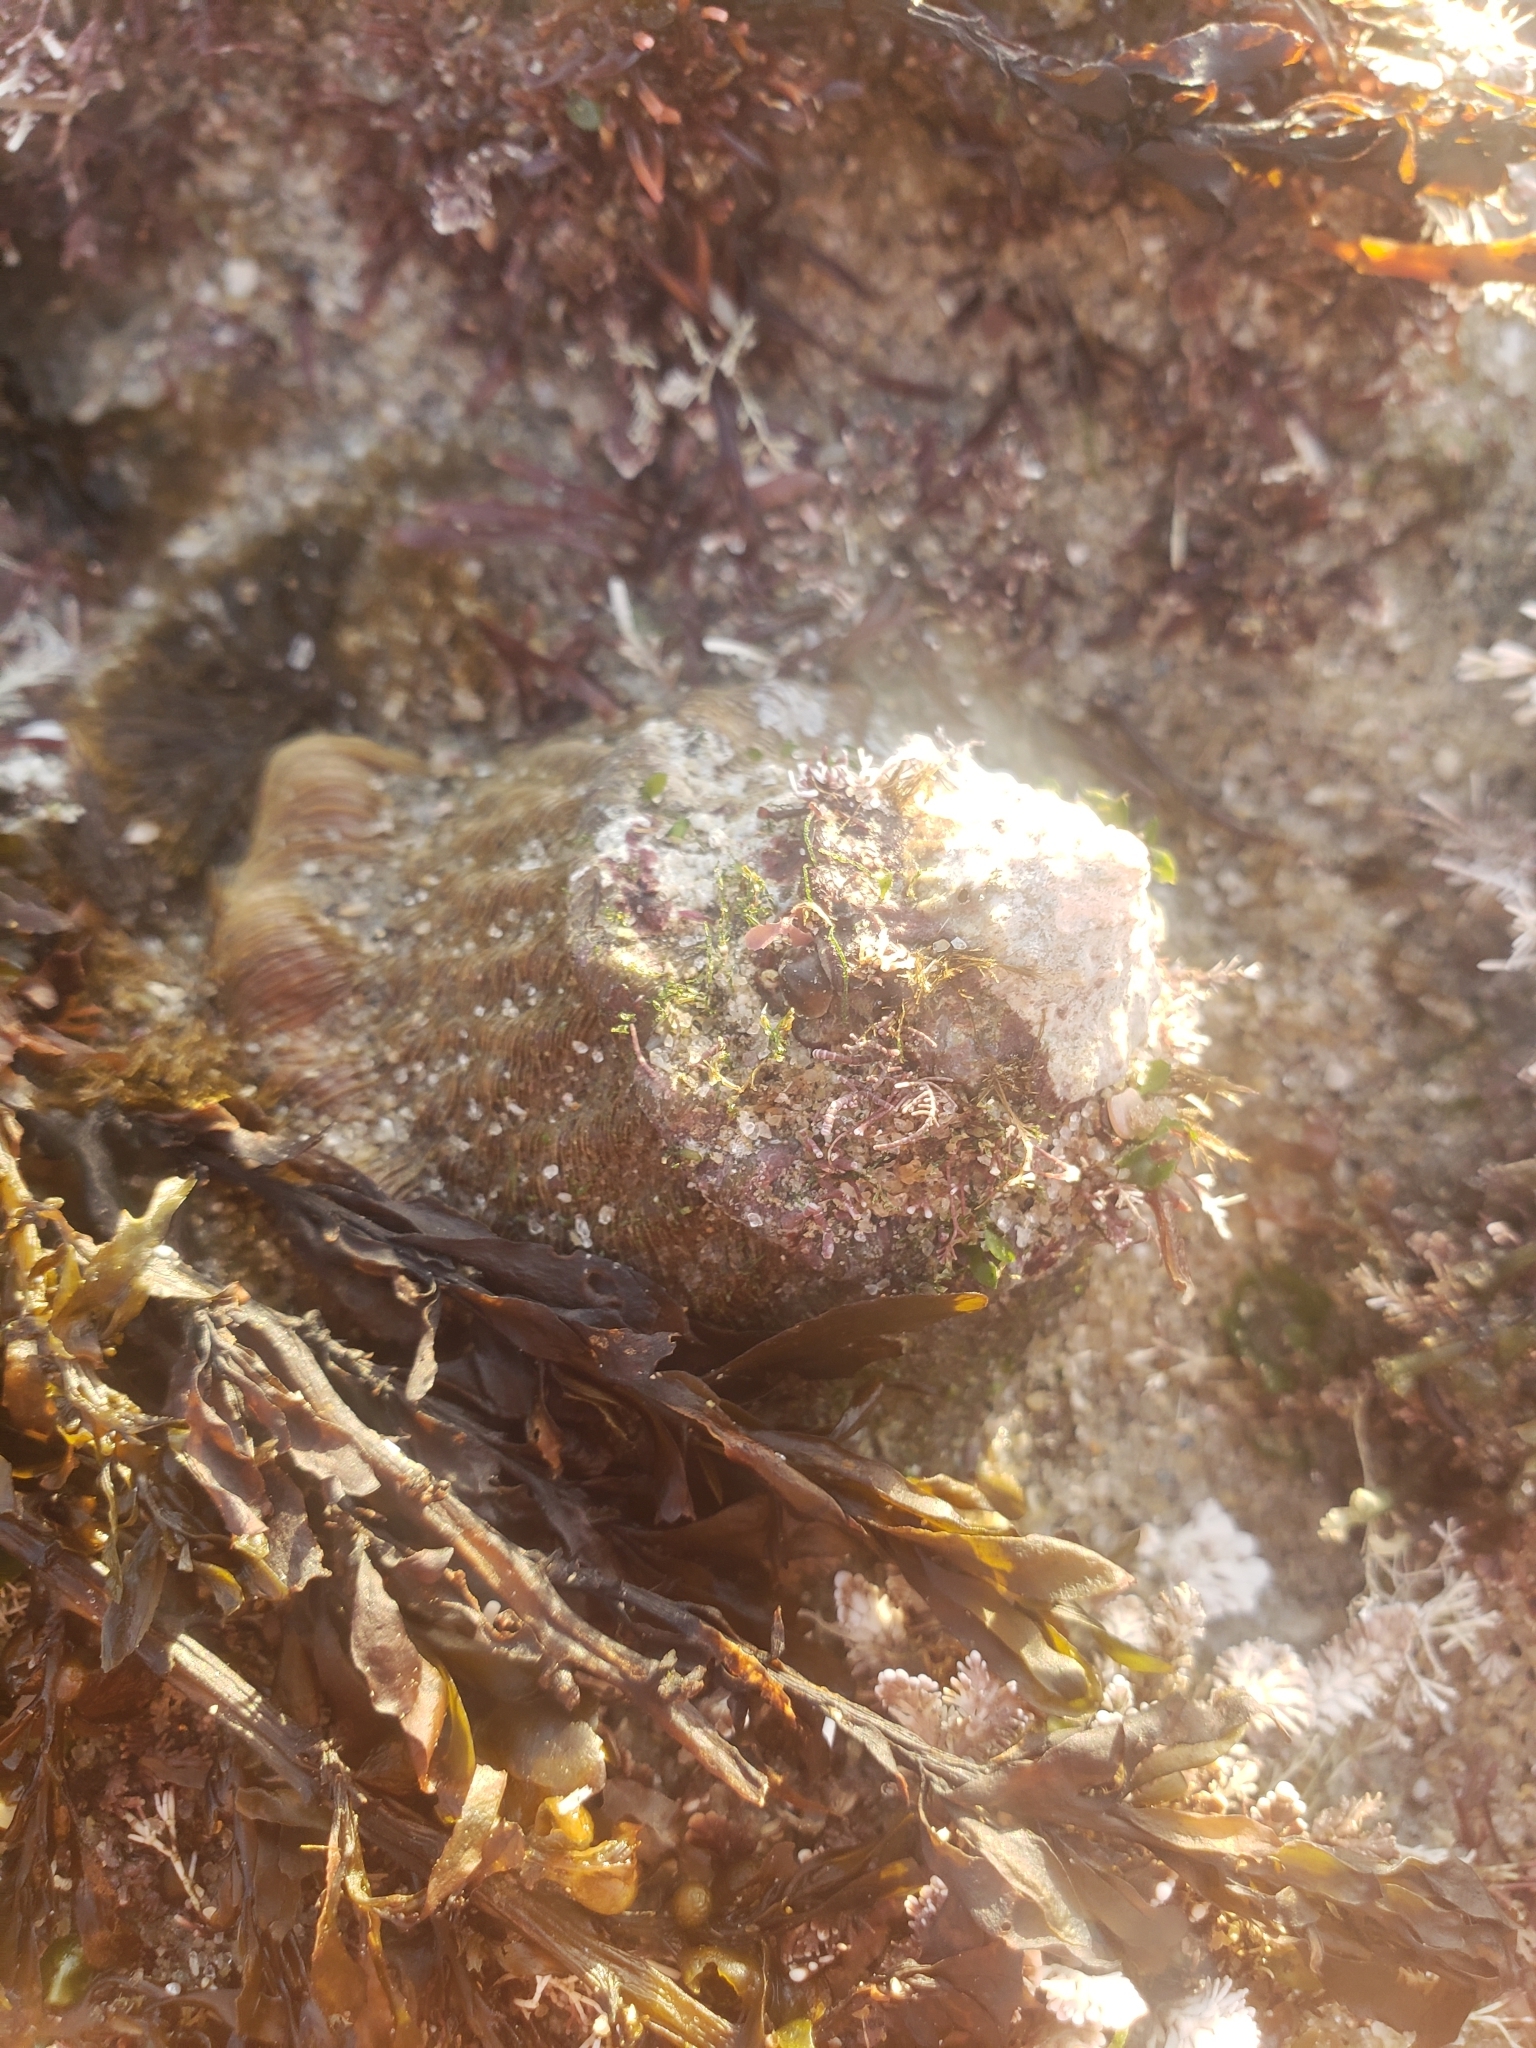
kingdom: Animalia
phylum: Mollusca
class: Gastropoda
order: Trochida
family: Turbinidae
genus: Megastraea
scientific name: Megastraea undosa
